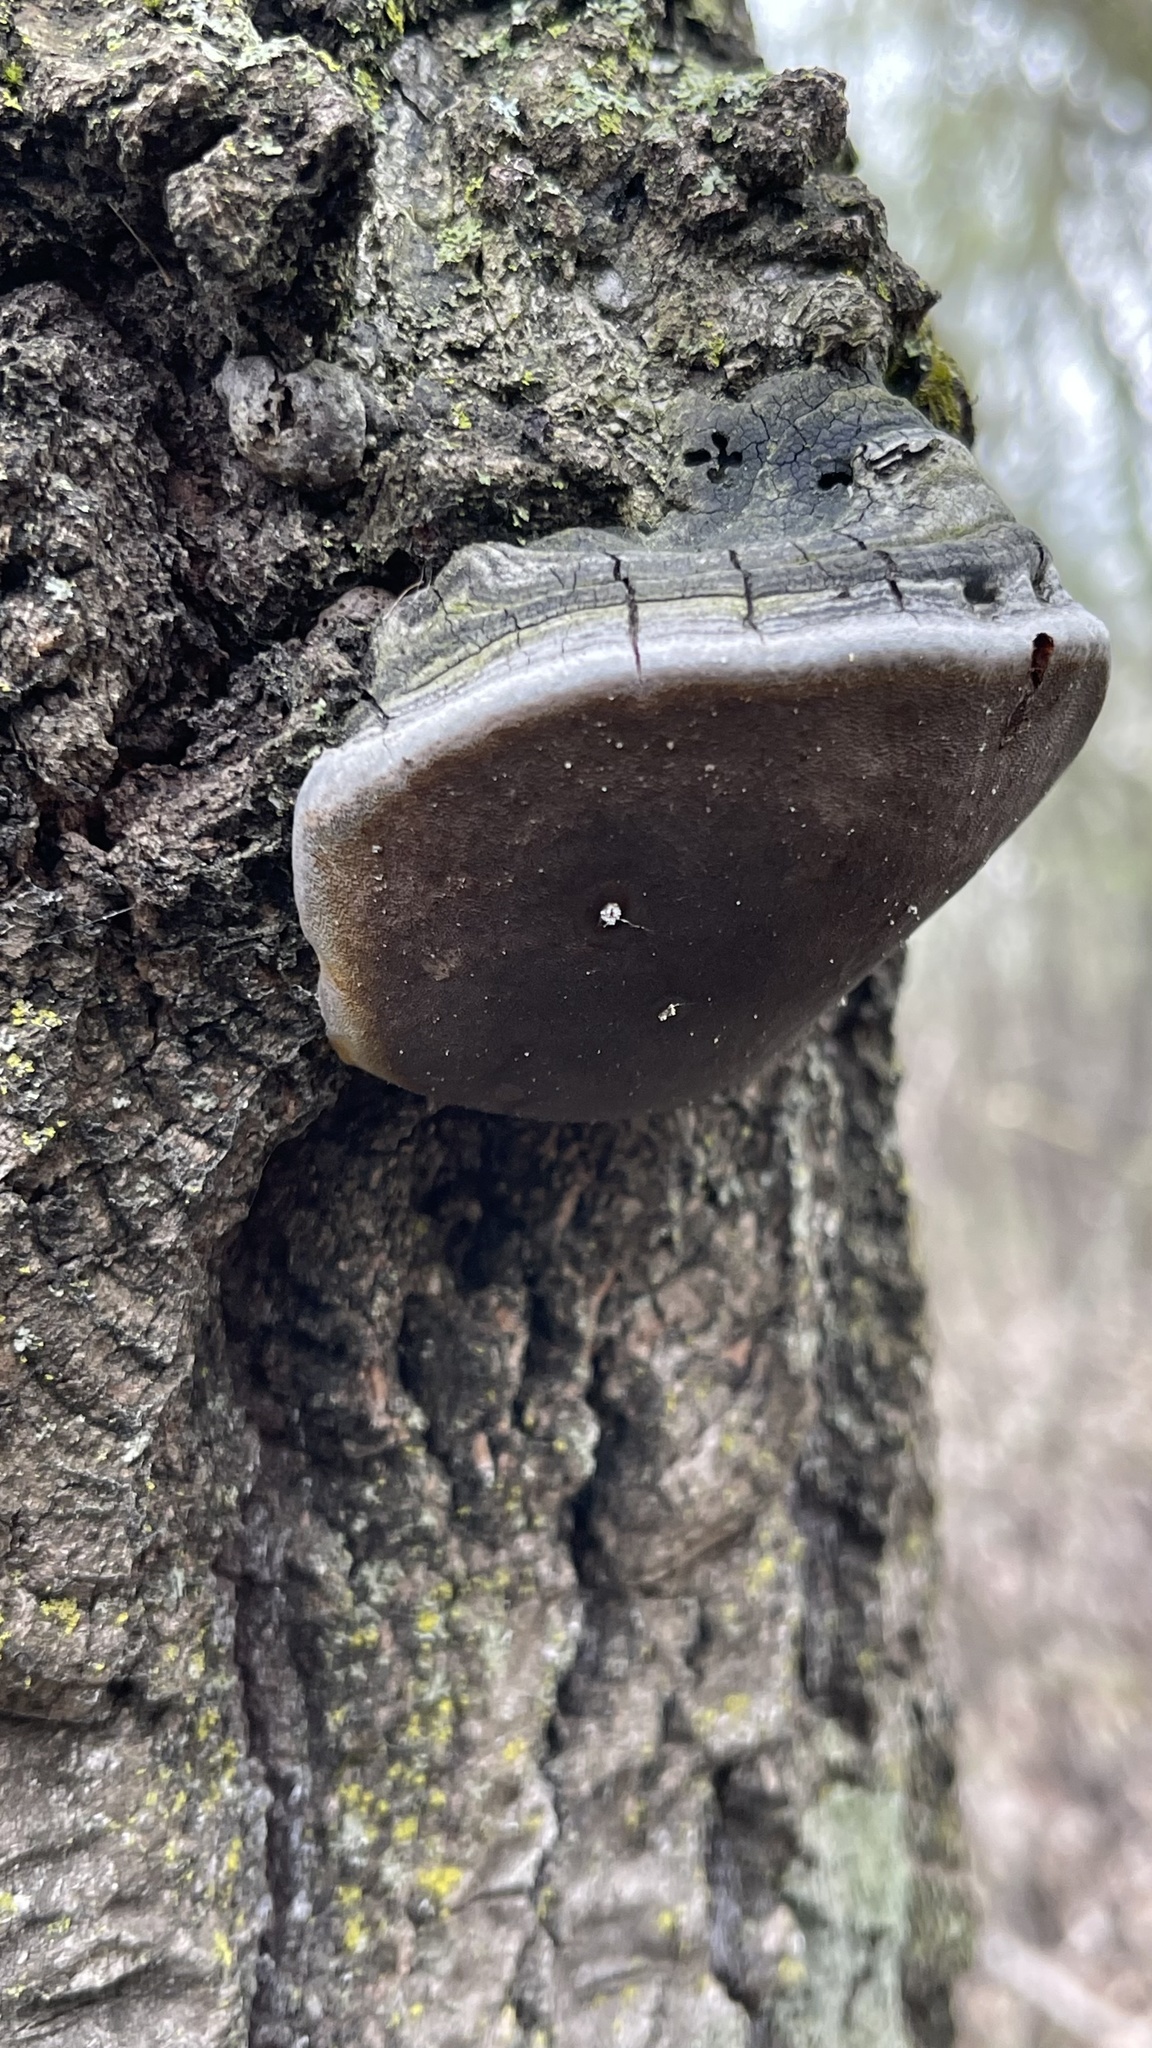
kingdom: Fungi
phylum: Basidiomycota
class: Agaricomycetes
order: Hymenochaetales
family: Hymenochaetaceae
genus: Phellinus
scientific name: Phellinus tremulae
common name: Aspen bracket
